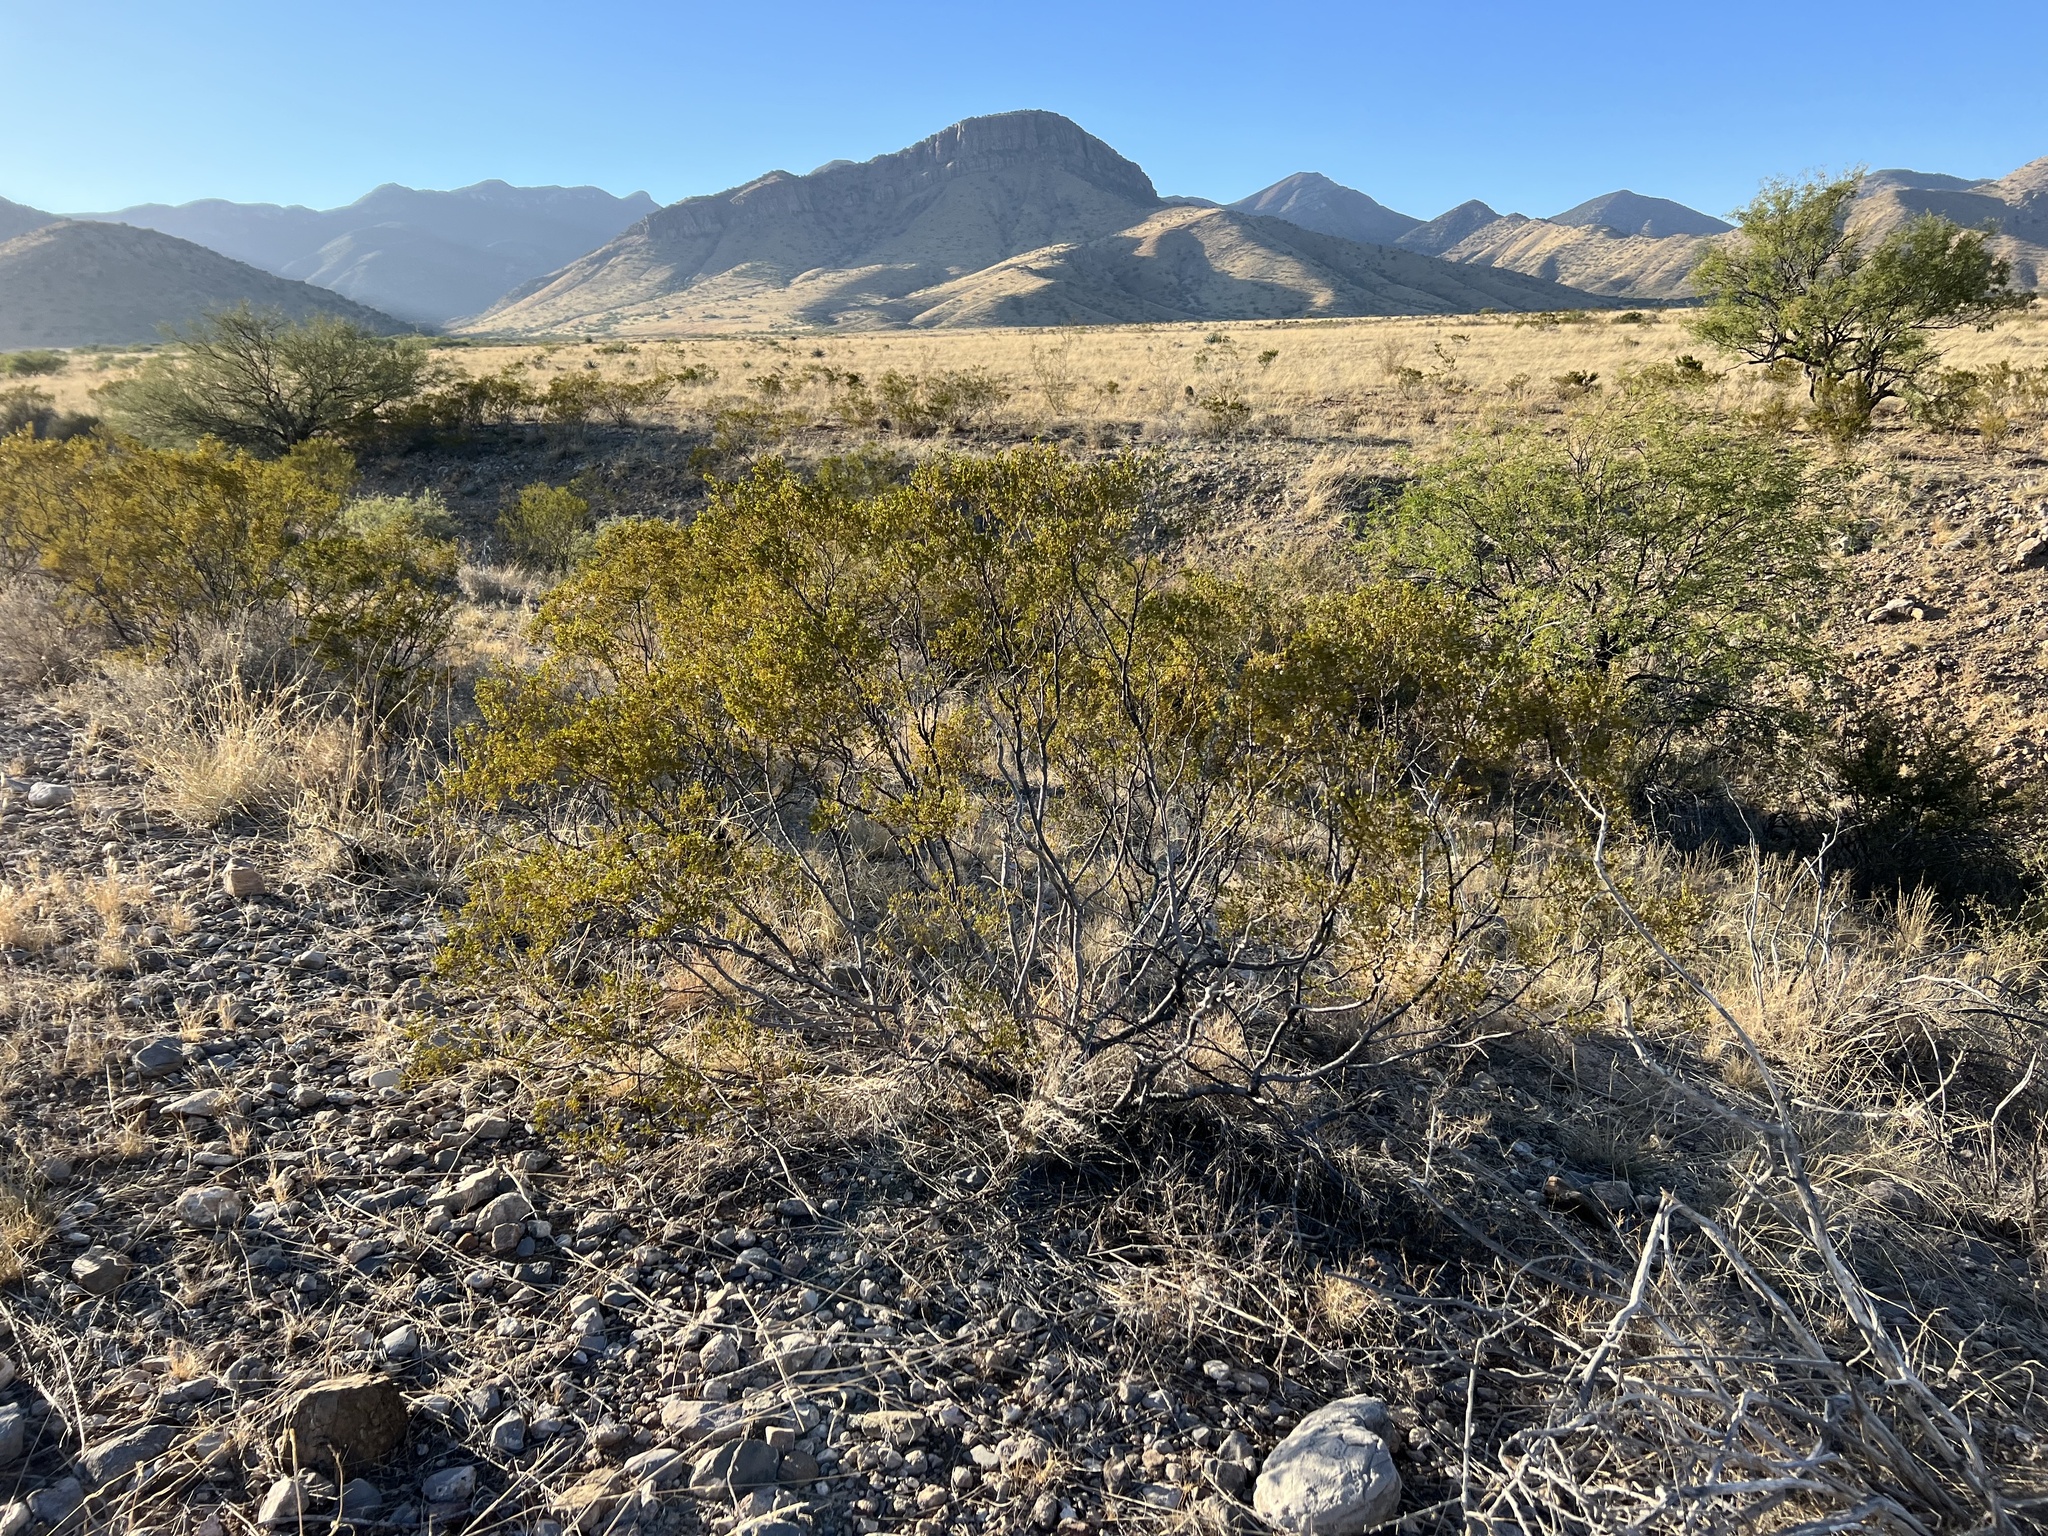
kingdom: Plantae
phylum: Tracheophyta
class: Magnoliopsida
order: Zygophyllales
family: Zygophyllaceae
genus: Larrea
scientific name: Larrea tridentata
